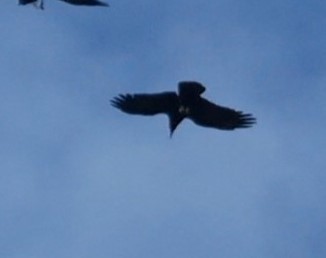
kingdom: Animalia
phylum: Chordata
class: Aves
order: Passeriformes
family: Corvidae
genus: Corvus
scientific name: Corvus corax
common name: Common raven
